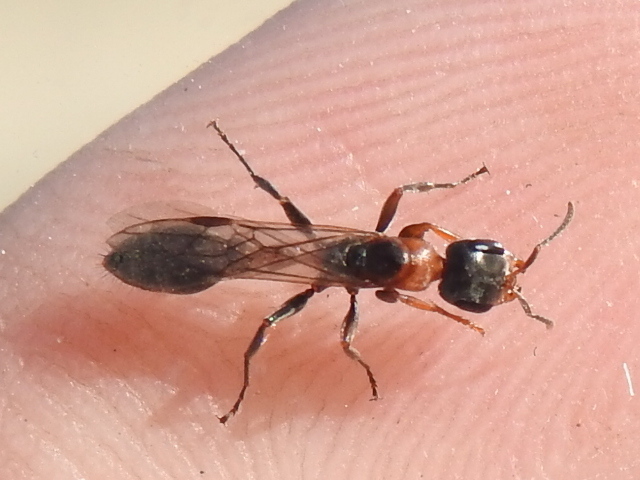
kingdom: Animalia
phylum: Arthropoda
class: Insecta
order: Hymenoptera
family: Formicidae
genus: Pseudomyrmex
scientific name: Pseudomyrmex gracilis
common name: Graceful twig ant
